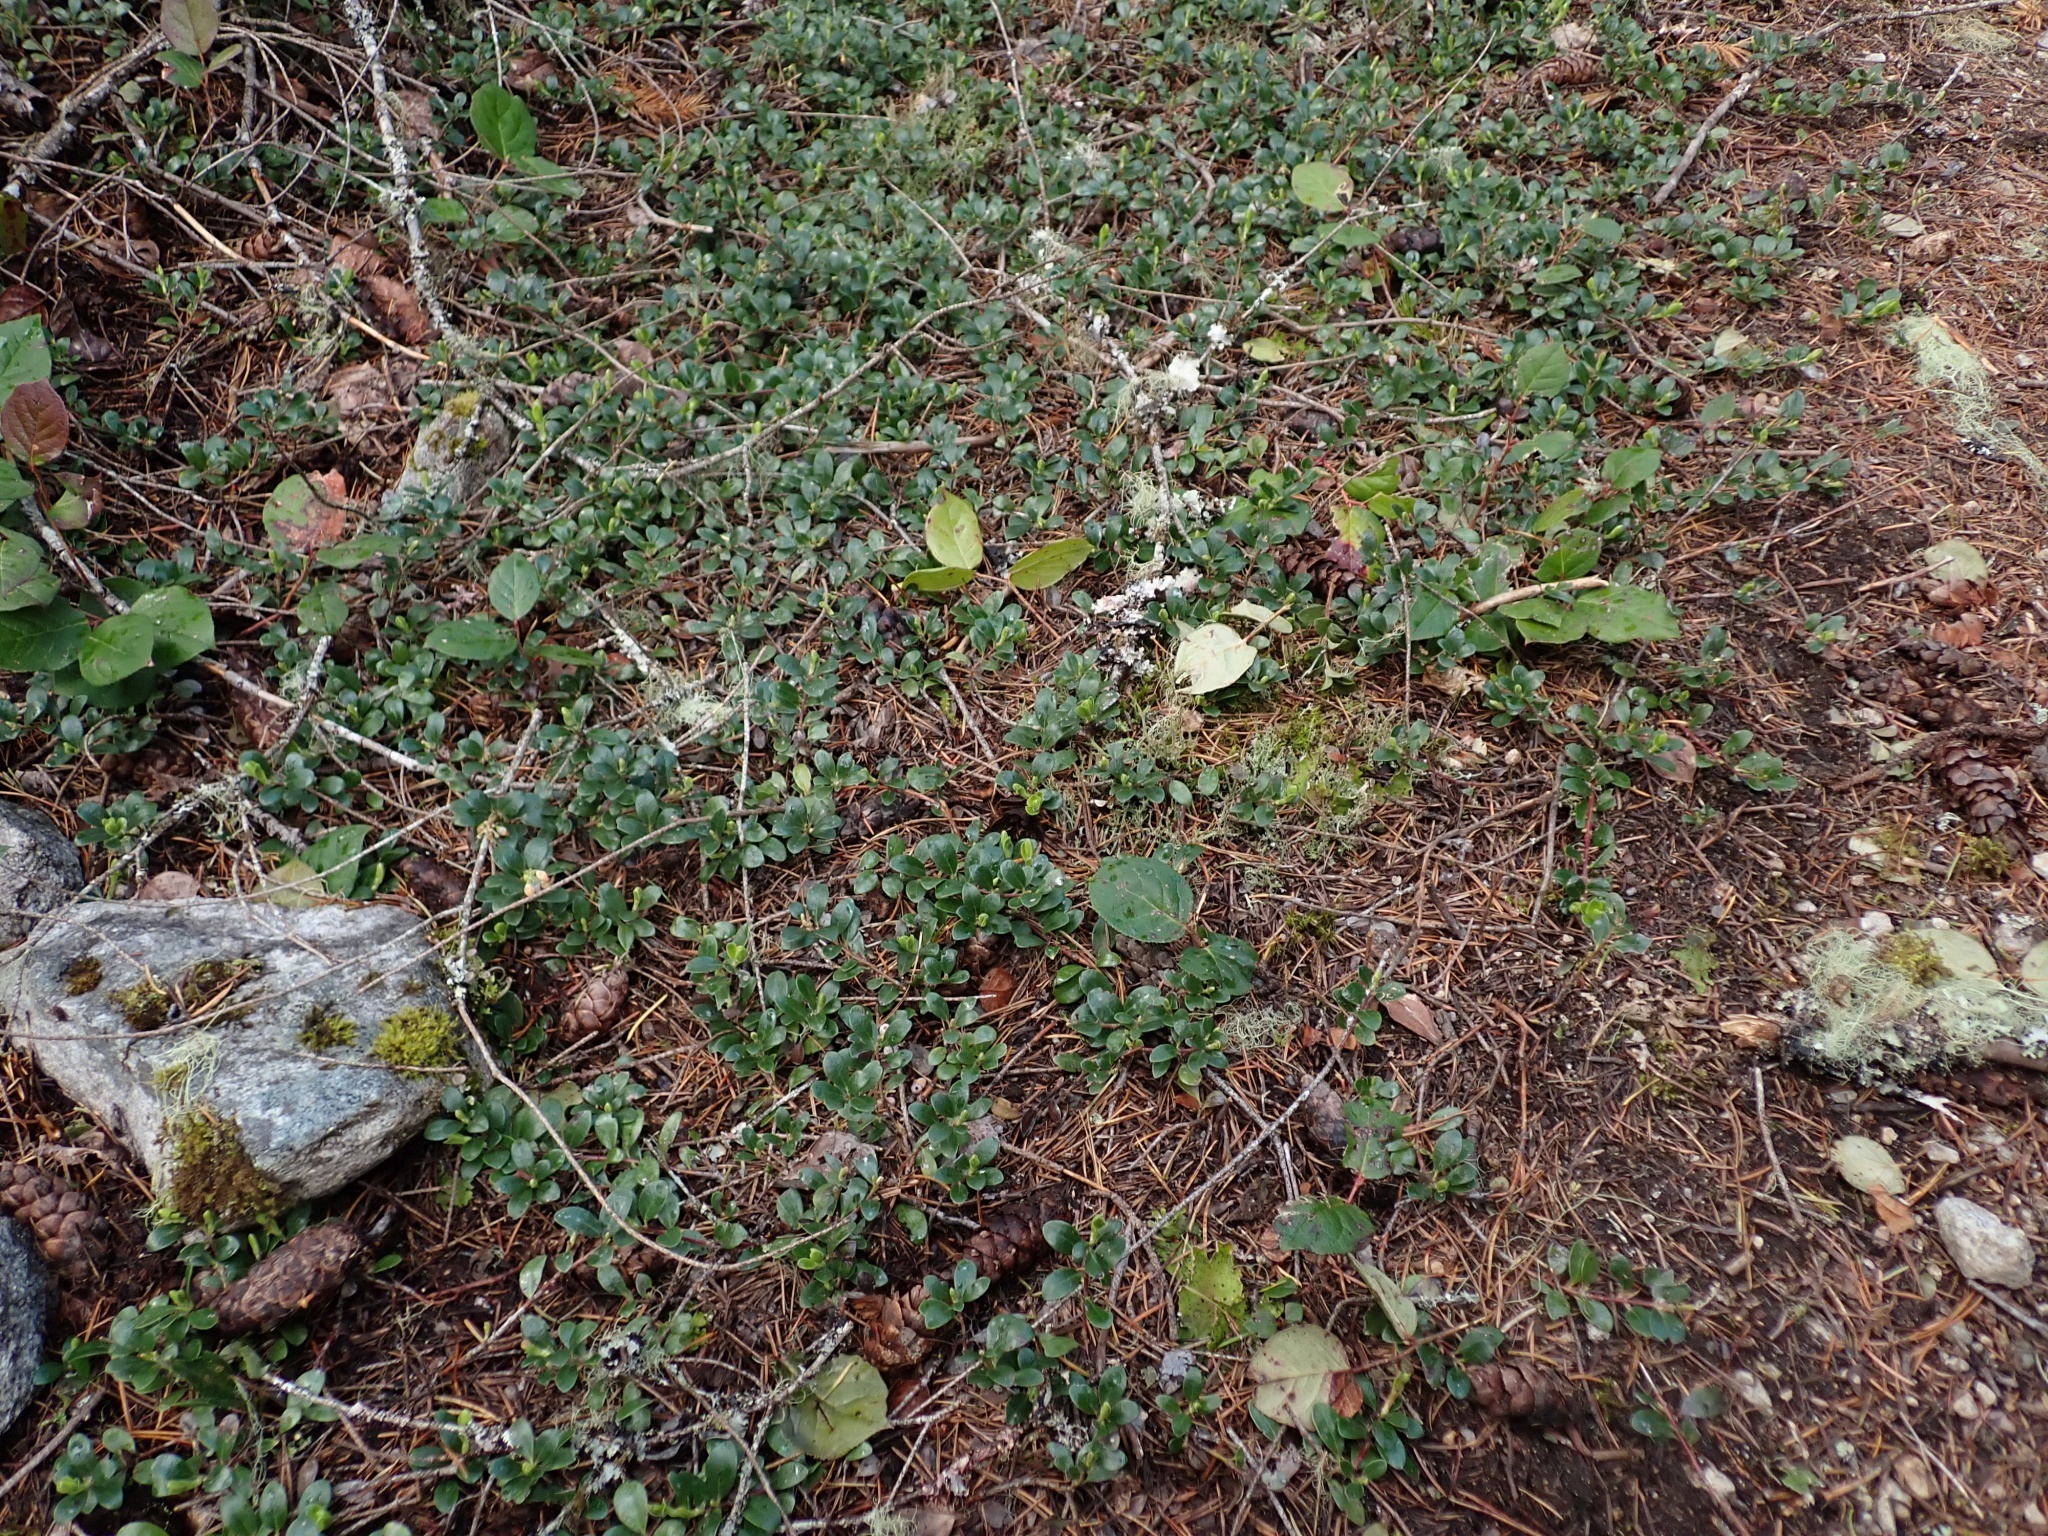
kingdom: Plantae
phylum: Tracheophyta
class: Magnoliopsida
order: Ericales
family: Ericaceae
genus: Arctostaphylos
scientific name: Arctostaphylos uva-ursi
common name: Bearberry
